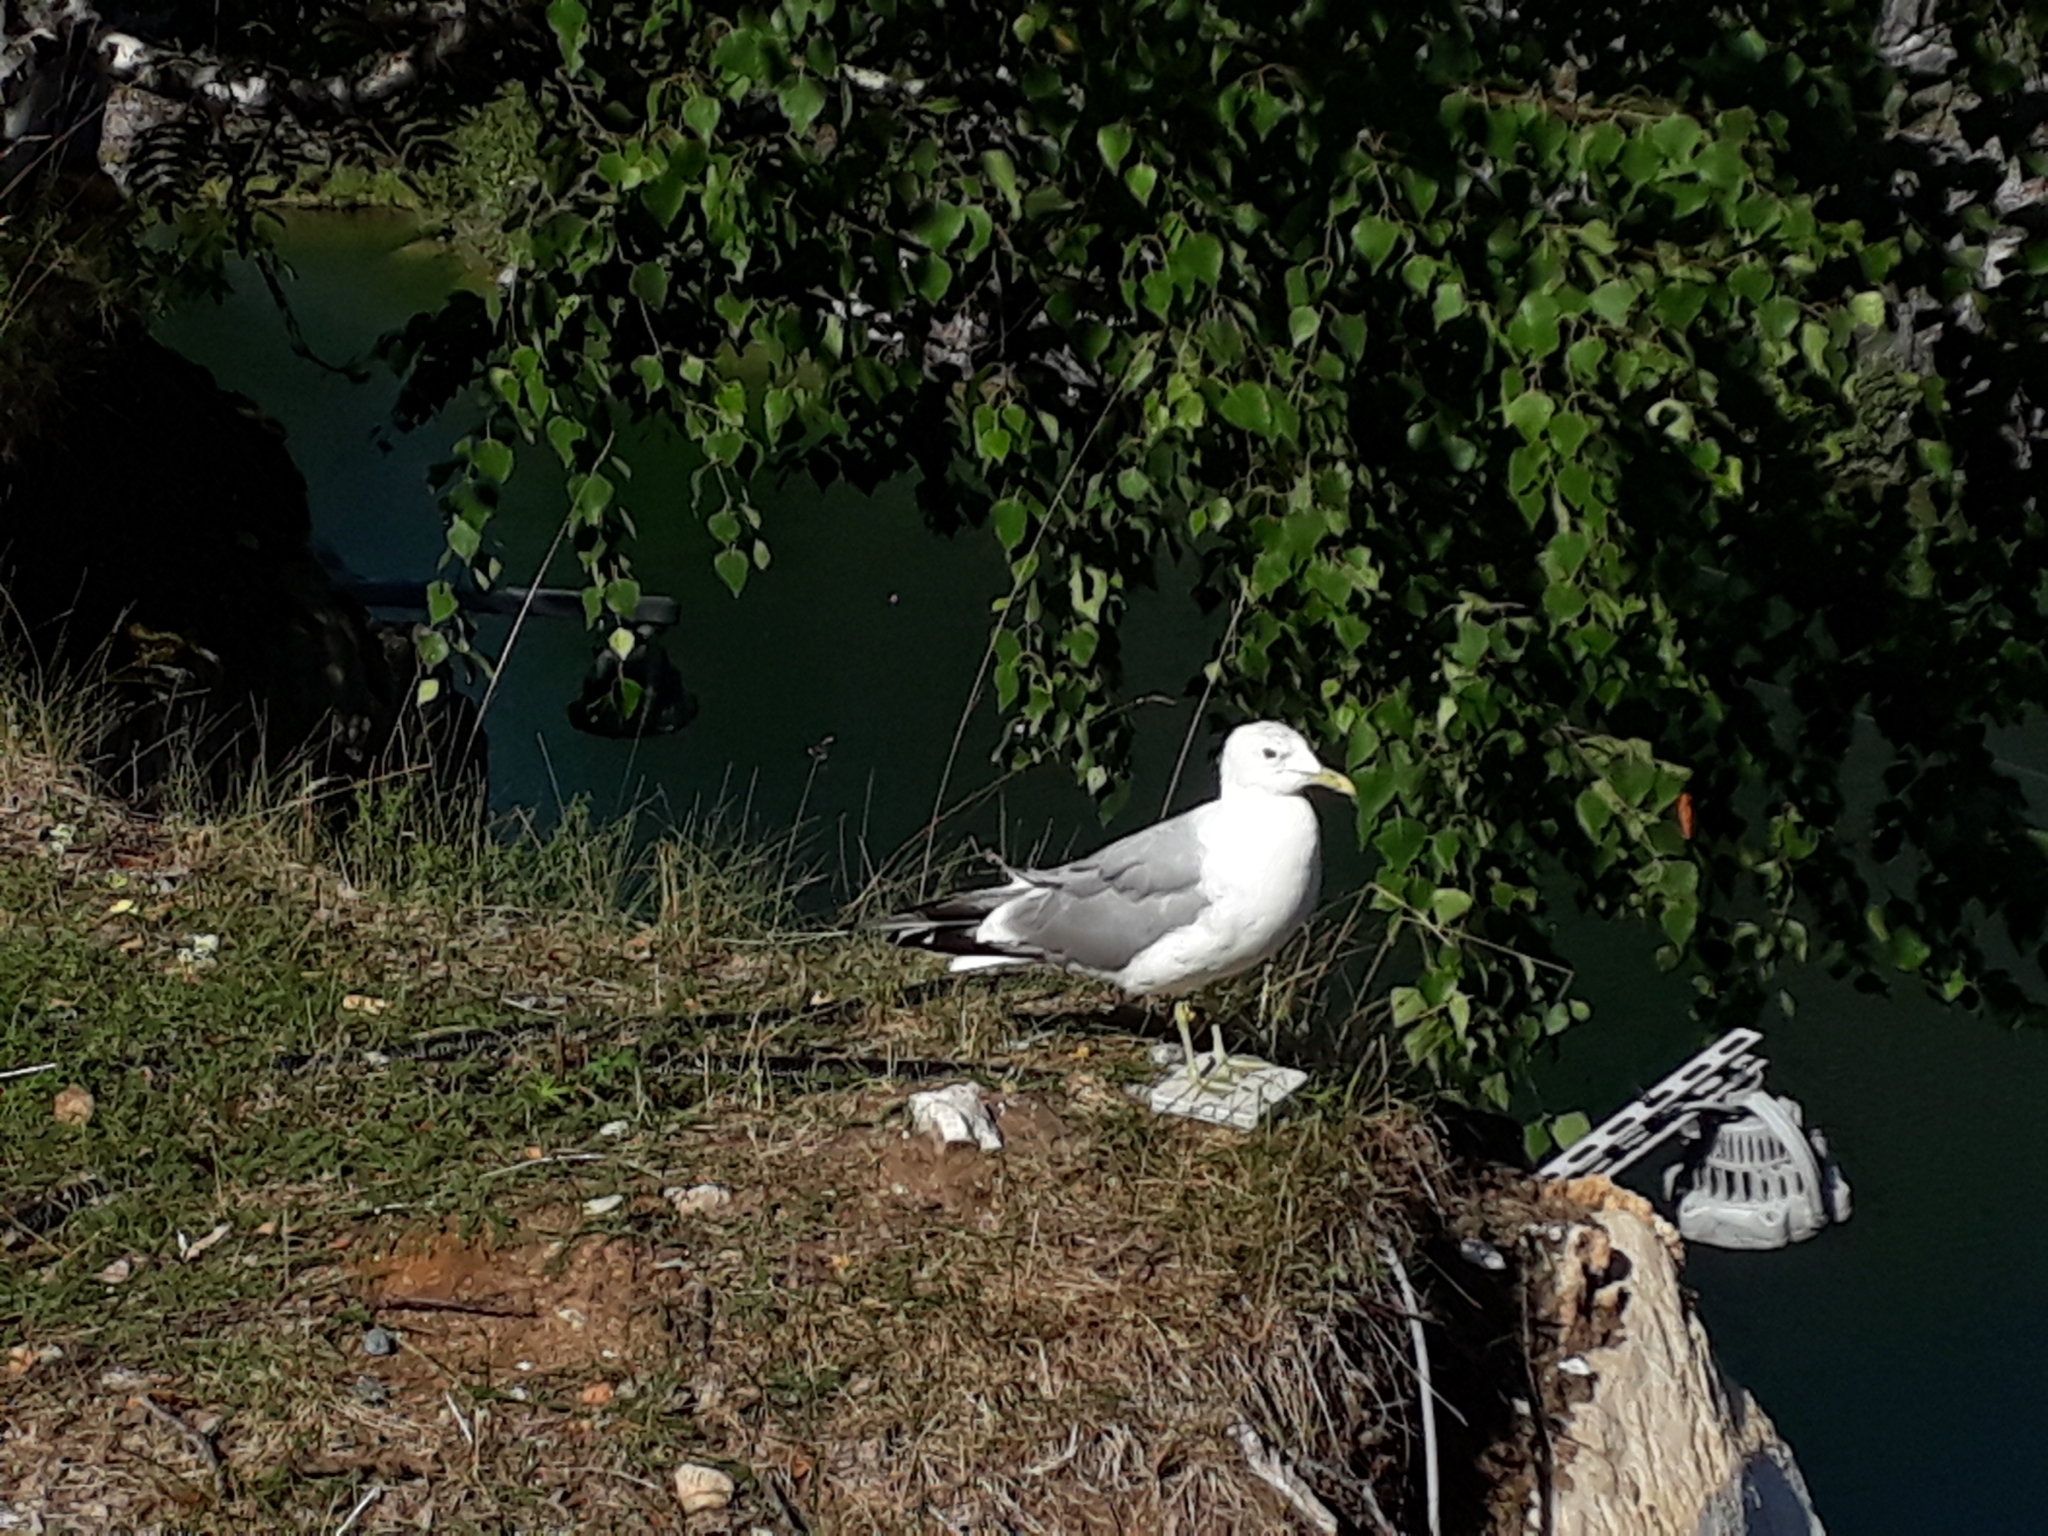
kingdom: Animalia
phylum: Chordata
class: Aves
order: Charadriiformes
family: Laridae
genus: Larus
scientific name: Larus canus
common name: Mew gull
